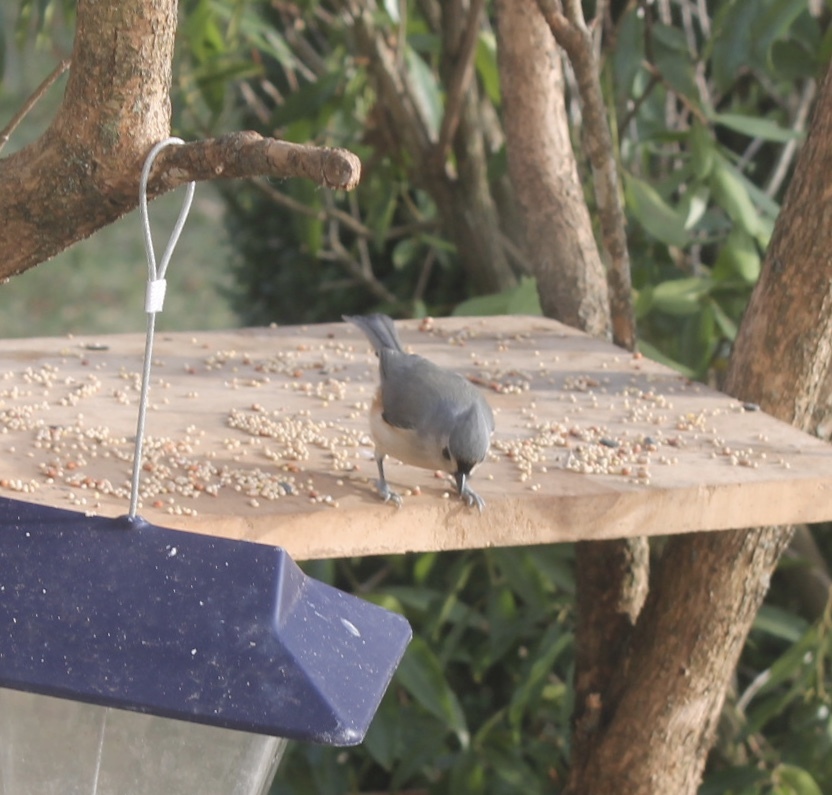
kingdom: Animalia
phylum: Chordata
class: Aves
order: Passeriformes
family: Paridae
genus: Baeolophus
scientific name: Baeolophus bicolor
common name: Tufted titmouse
